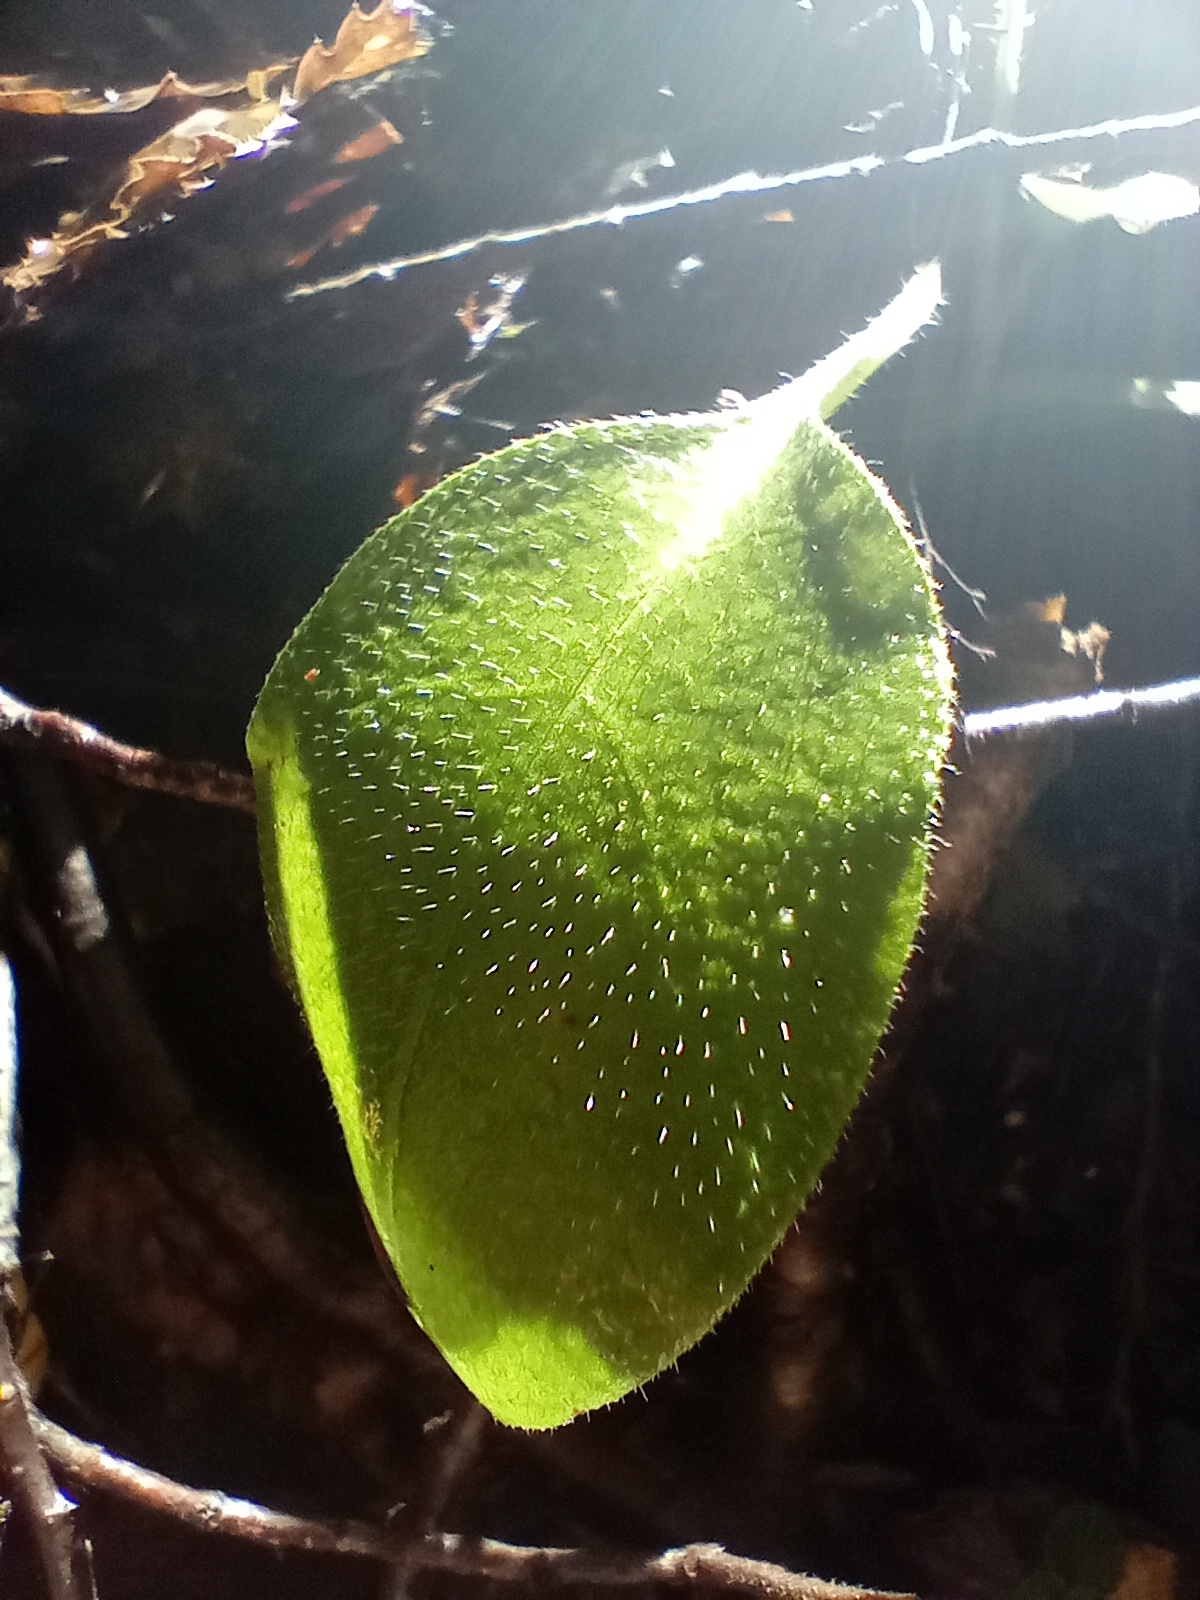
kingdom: Plantae
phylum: Tracheophyta
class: Magnoliopsida
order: Boraginales
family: Boraginaceae
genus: Myosotis
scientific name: Myosotis forsteri
